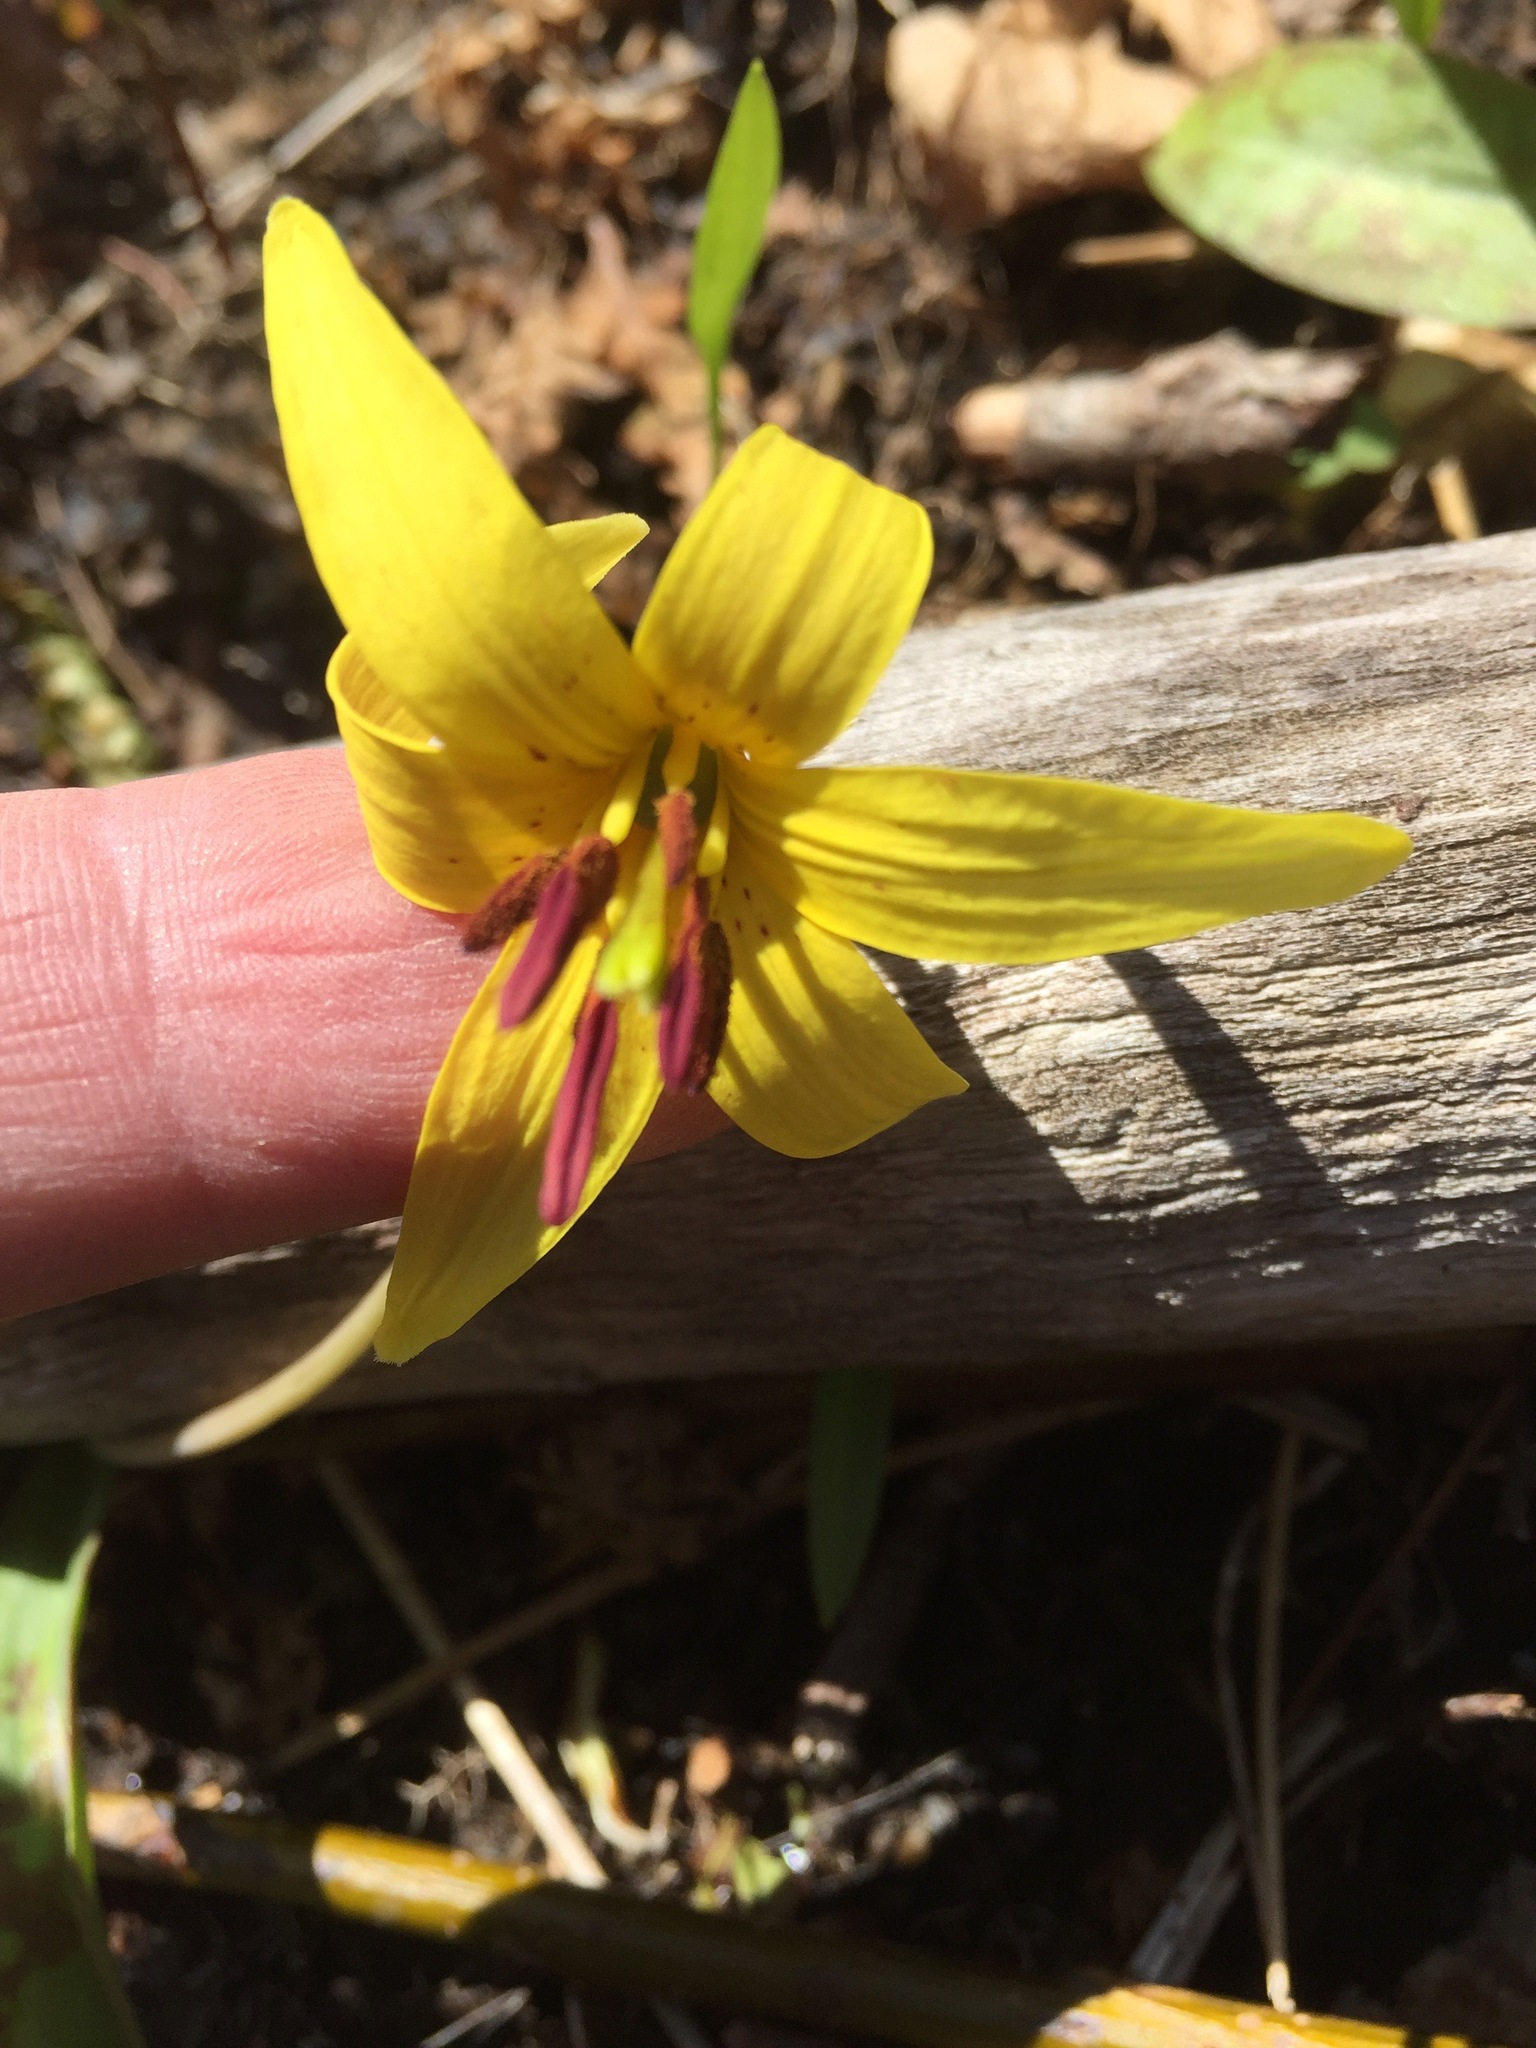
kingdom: Plantae
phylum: Tracheophyta
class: Liliopsida
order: Liliales
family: Liliaceae
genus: Erythronium
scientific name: Erythronium americanum
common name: Yellow adder's-tongue
